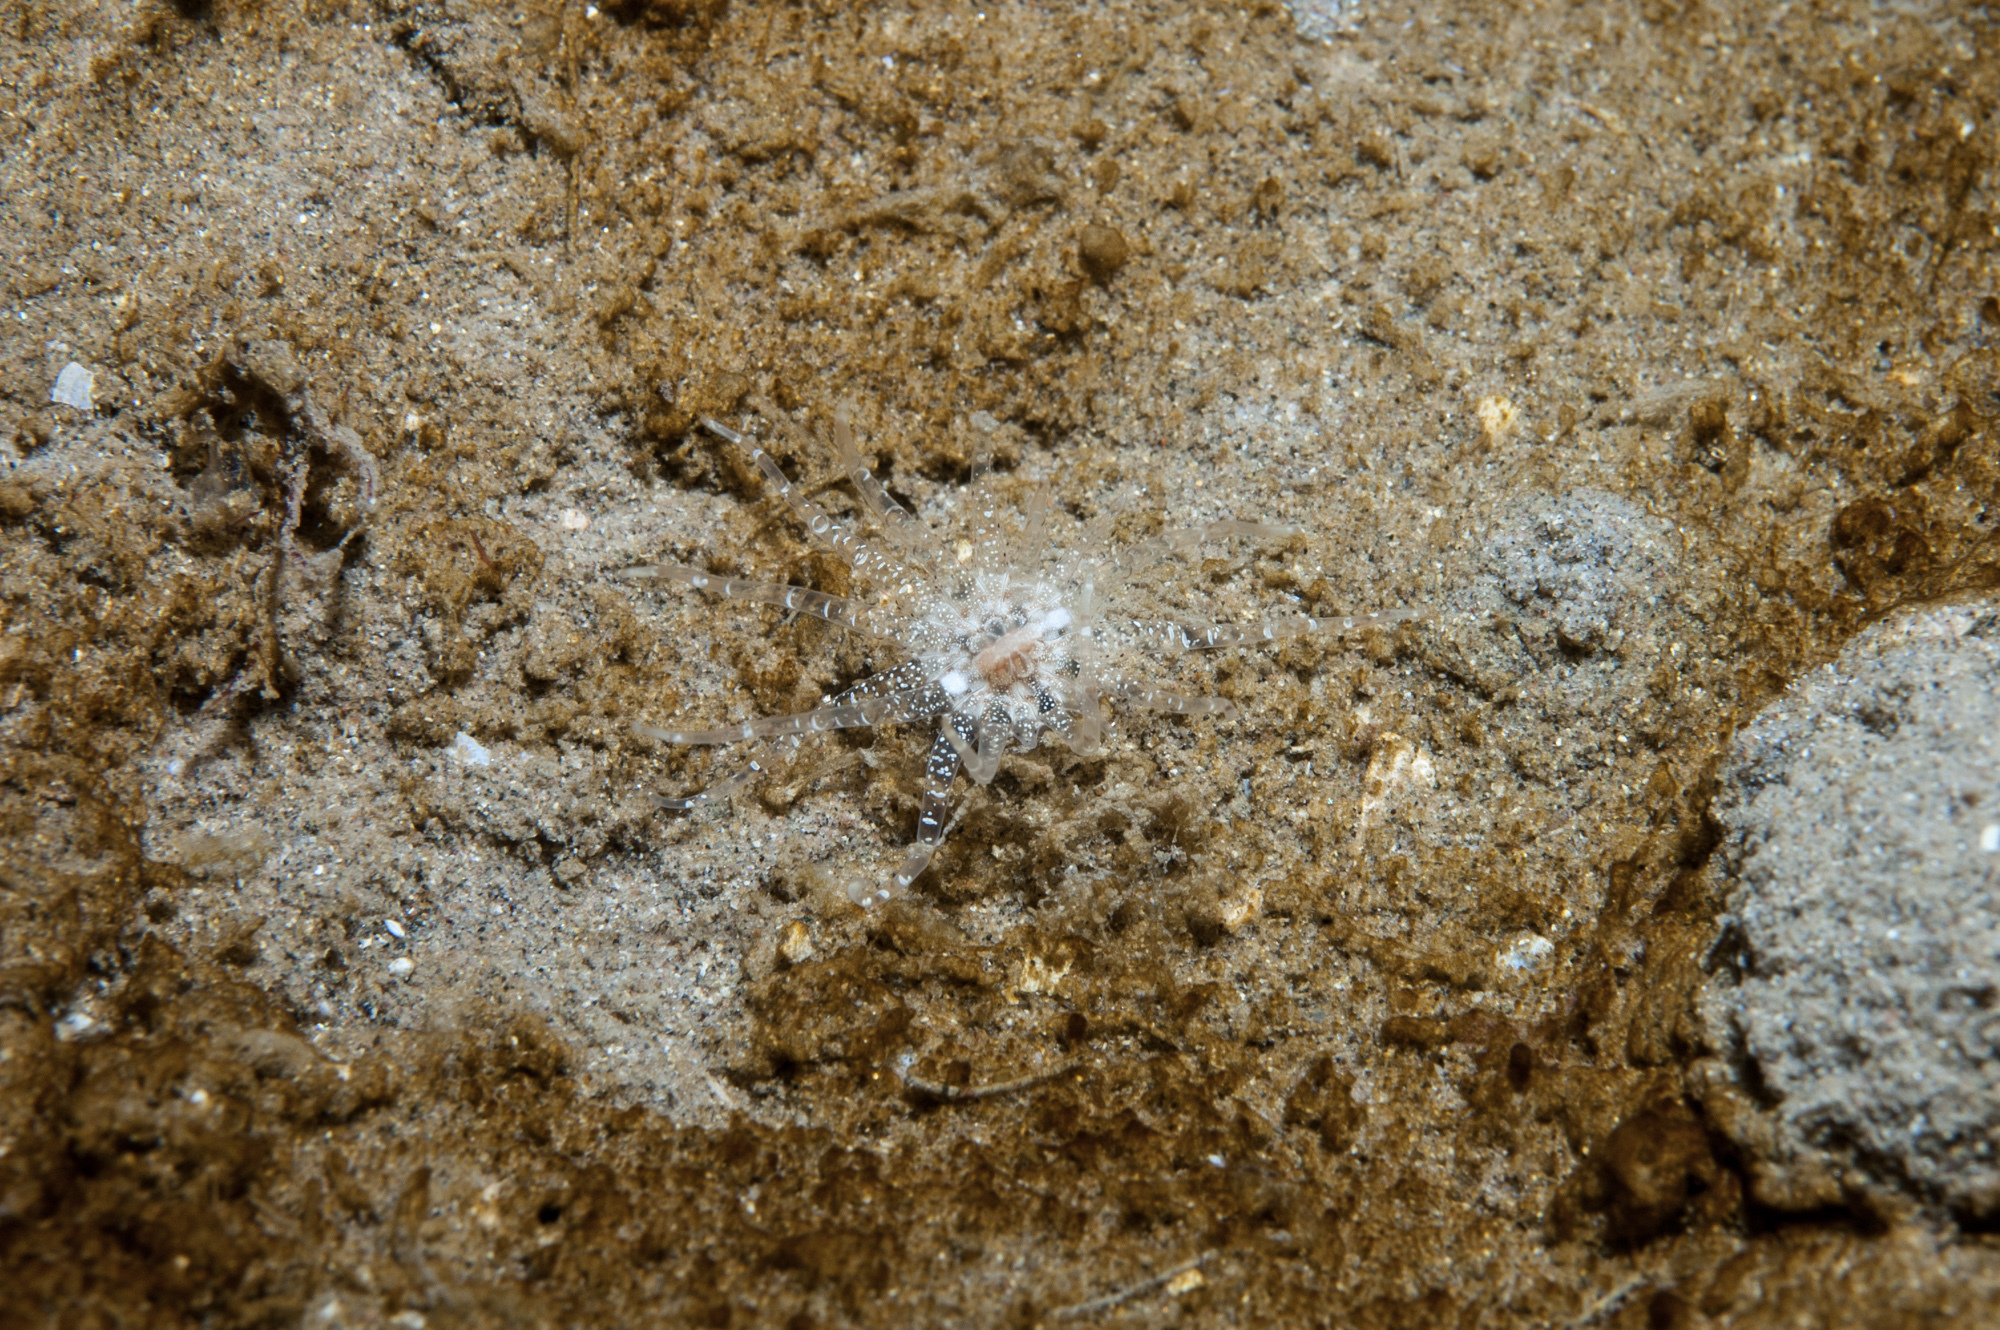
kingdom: Animalia
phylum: Cnidaria
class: Anthozoa
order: Actiniaria
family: Edwardsiidae
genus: Edwardsia
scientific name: Edwardsia claparedii
